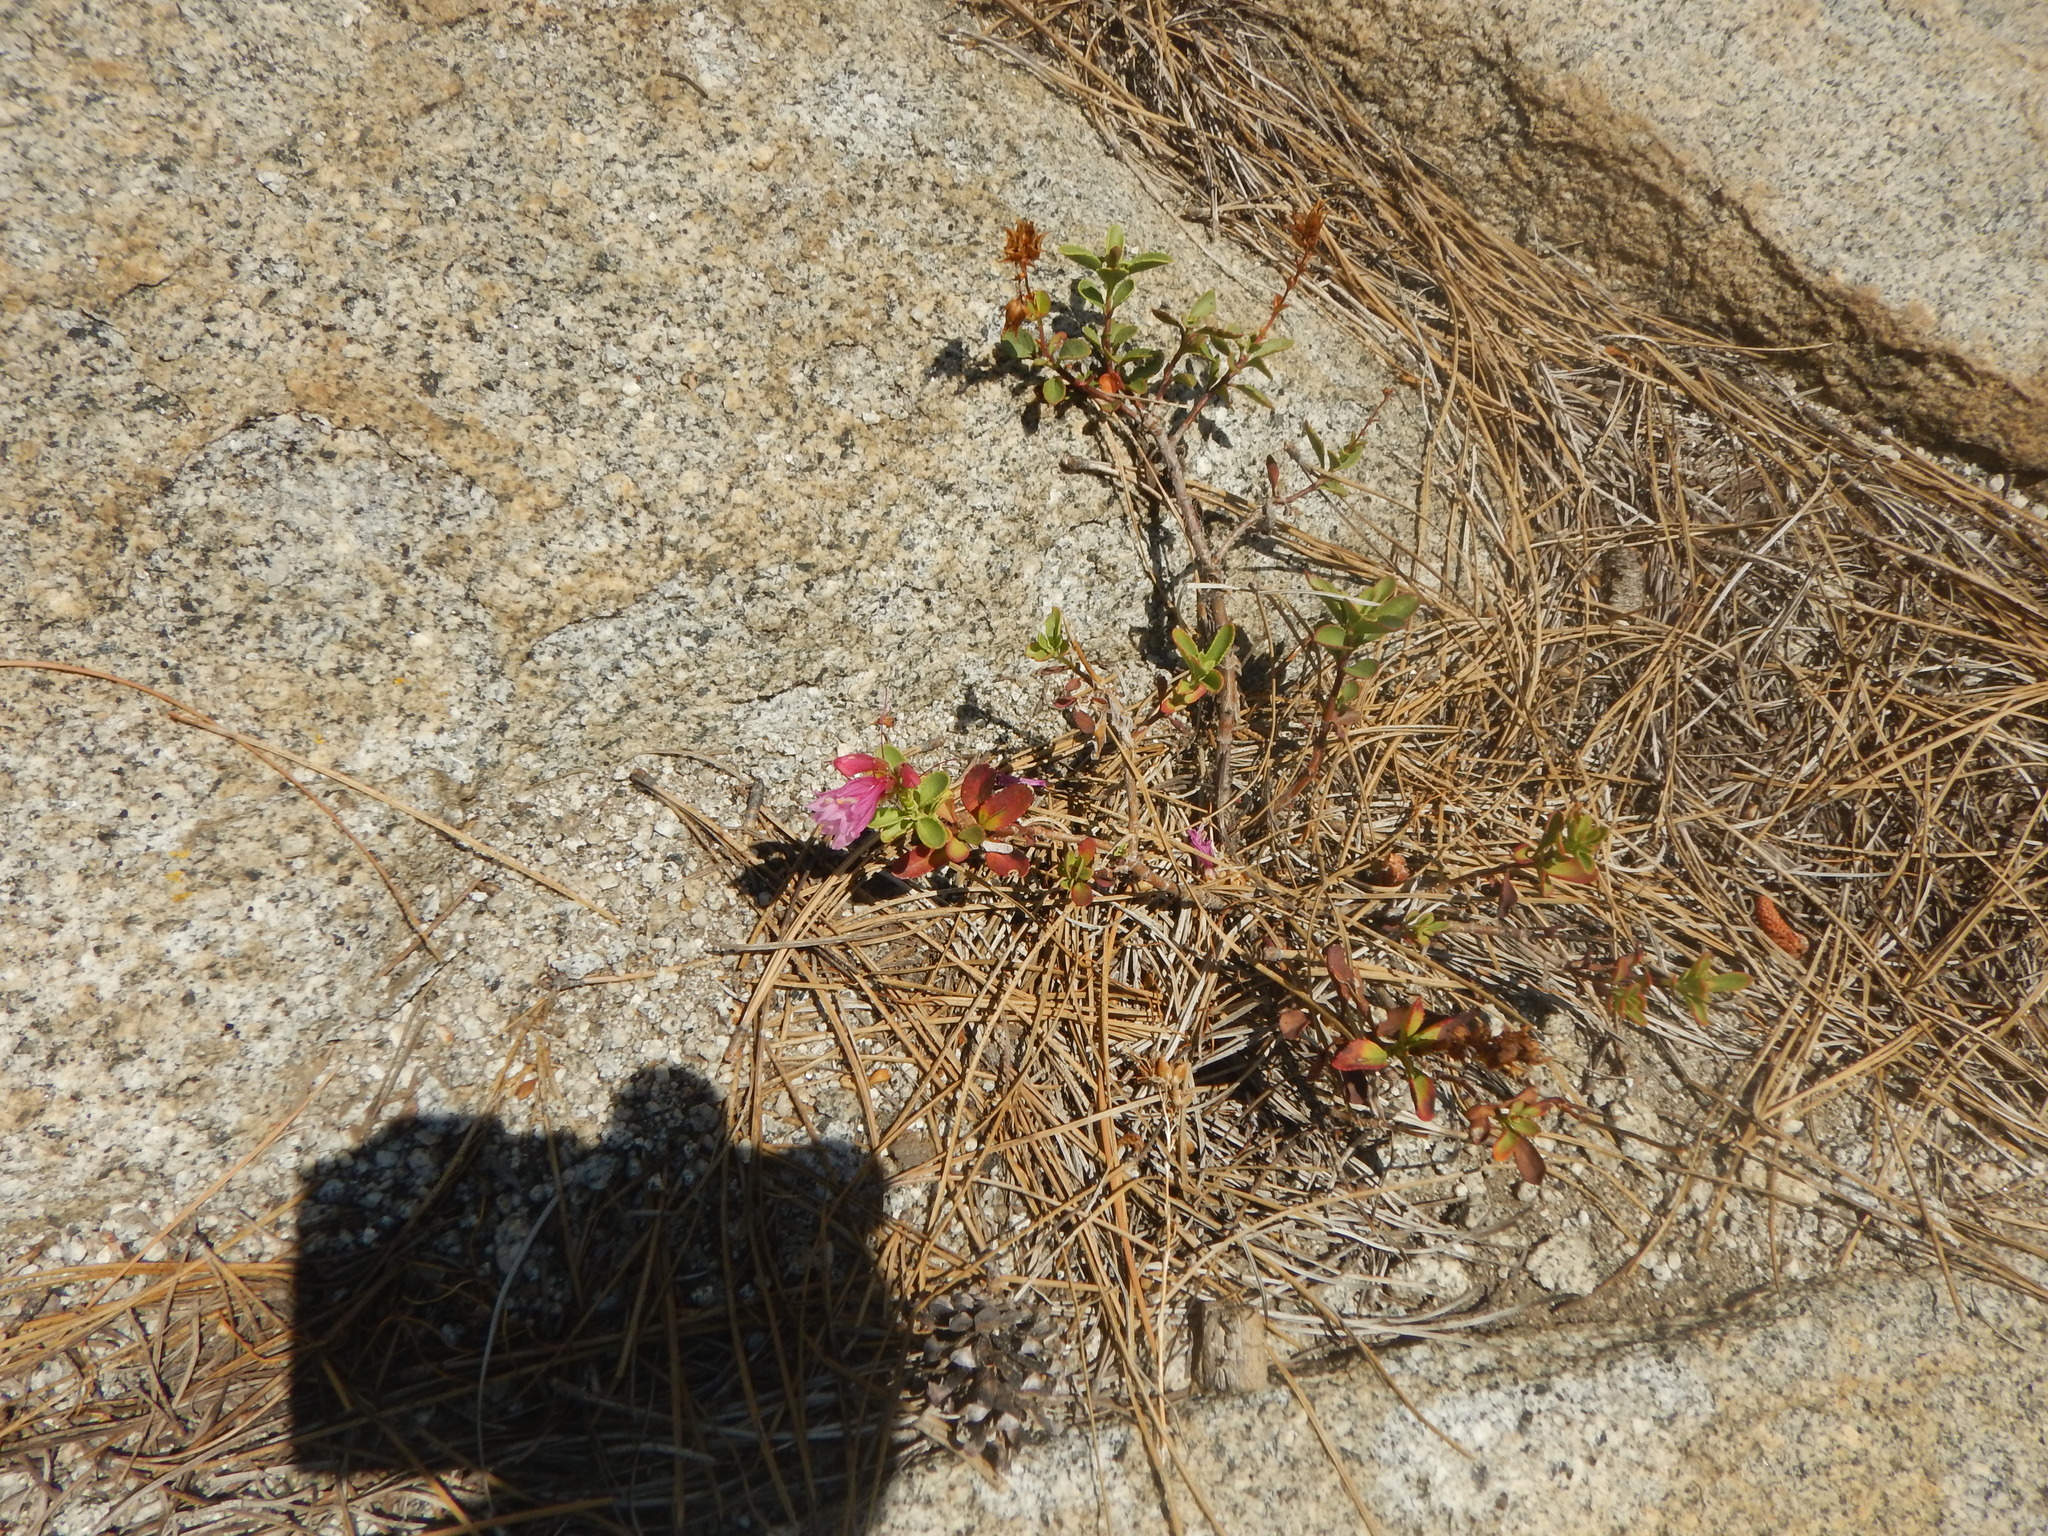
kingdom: Plantae
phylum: Tracheophyta
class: Magnoliopsida
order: Lamiales
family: Plantaginaceae
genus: Penstemon
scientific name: Penstemon newberryi
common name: Mountain-pride
